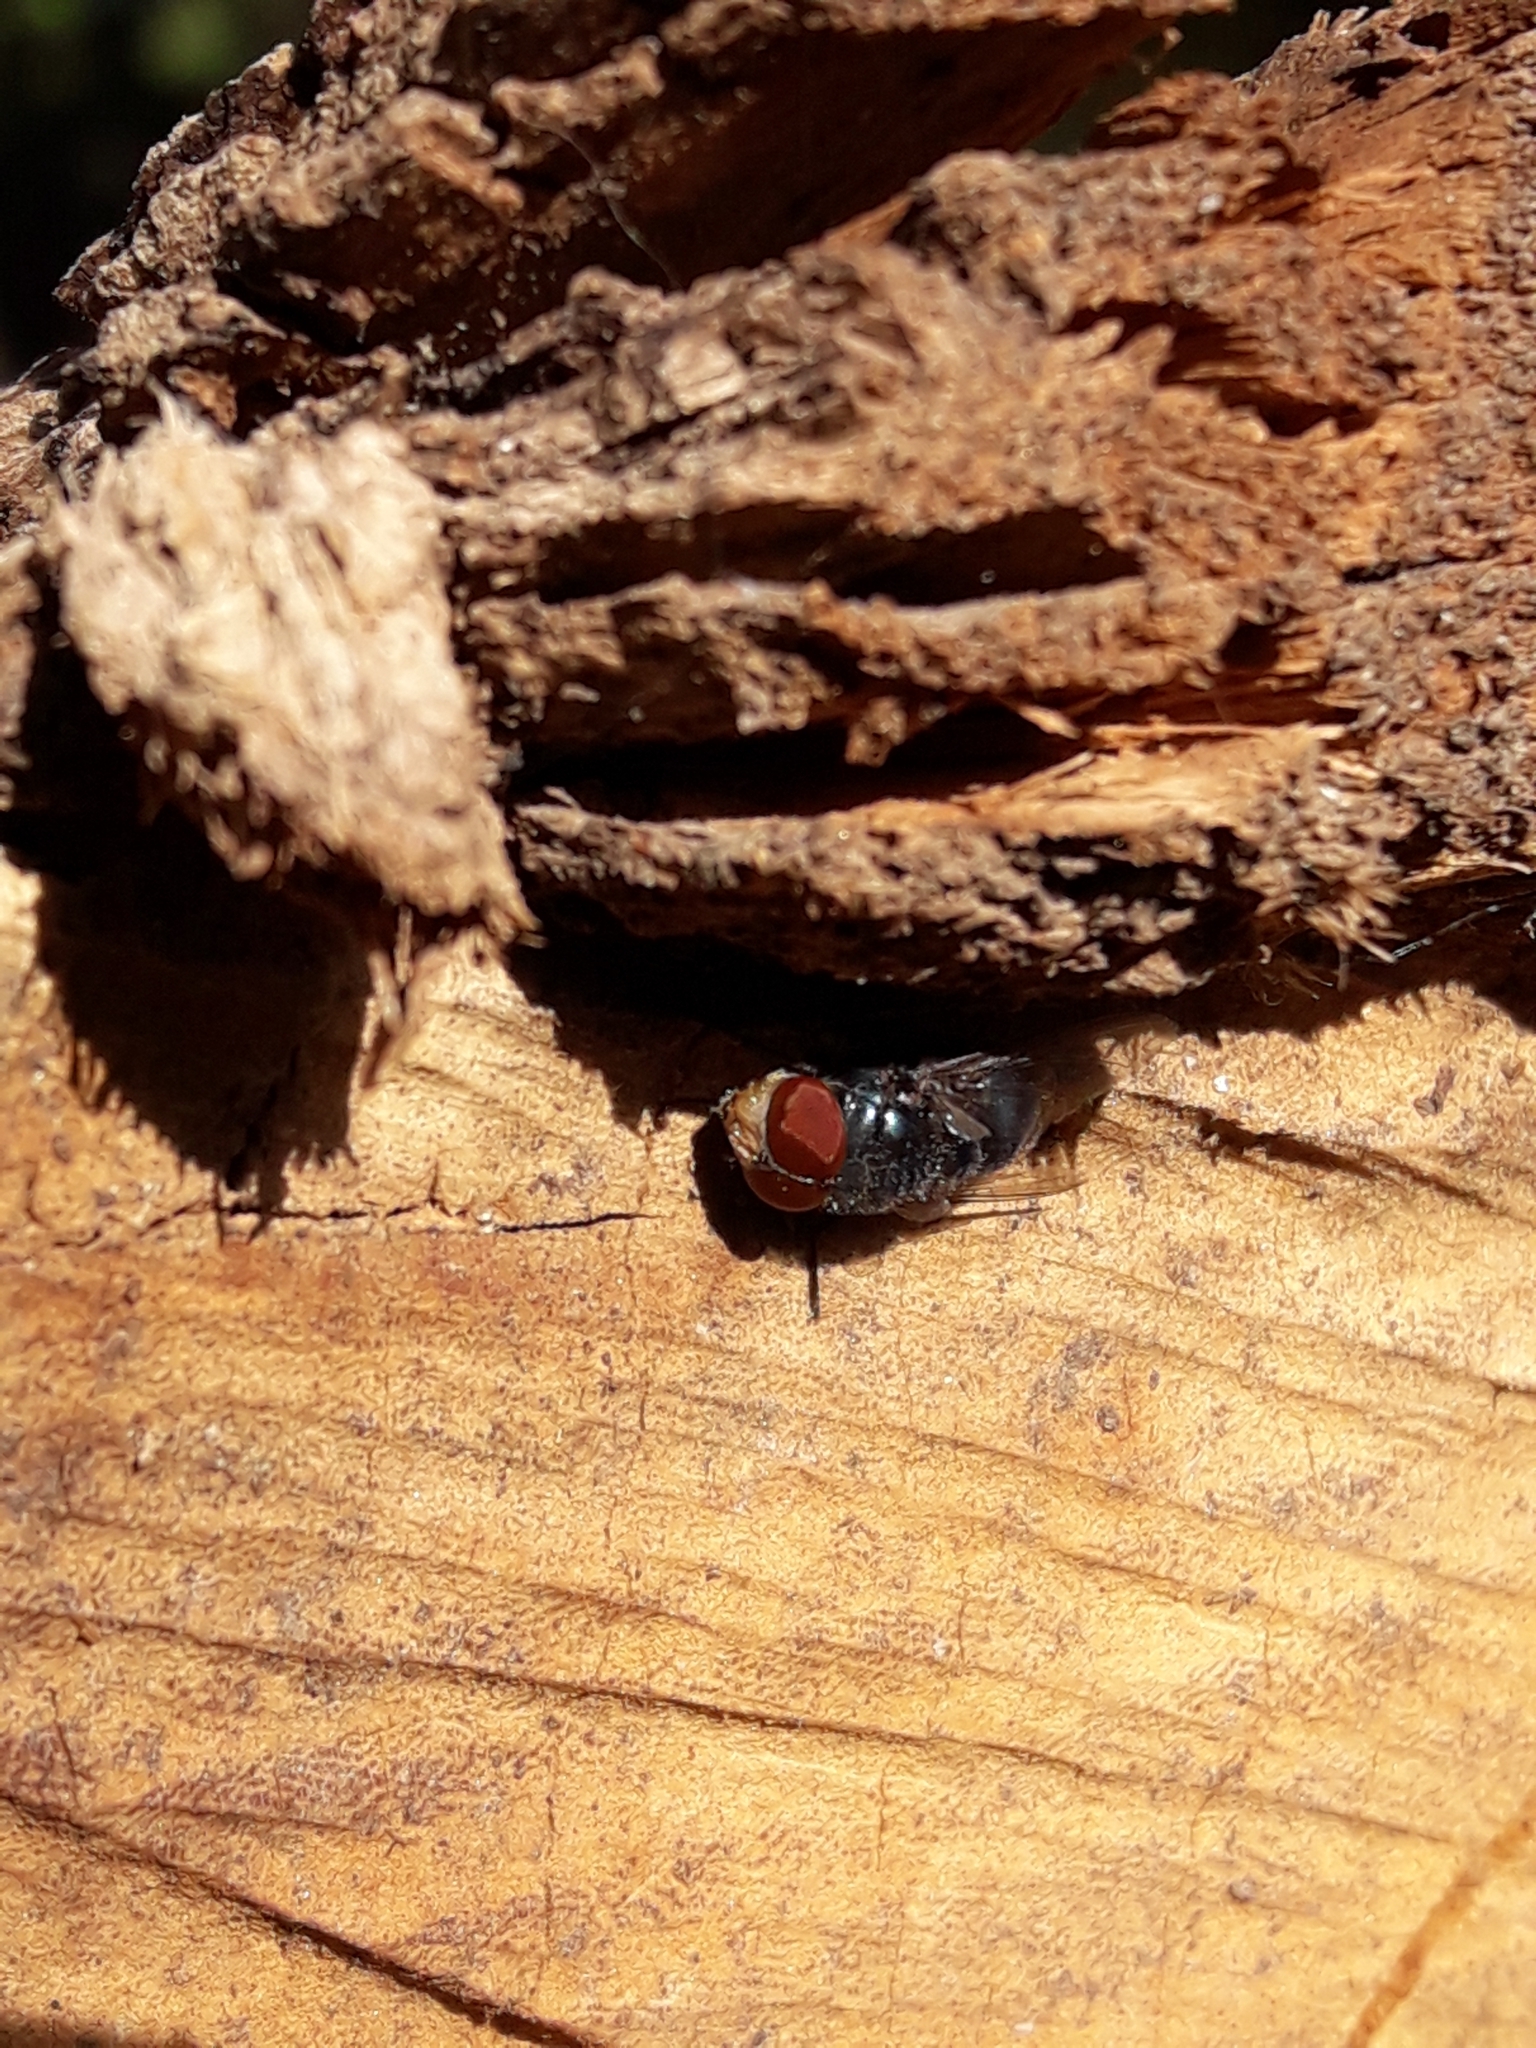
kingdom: Animalia
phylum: Arthropoda
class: Insecta
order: Diptera
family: Calliphoridae
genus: Chrysomya
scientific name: Chrysomya megacephala
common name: Blow fly
